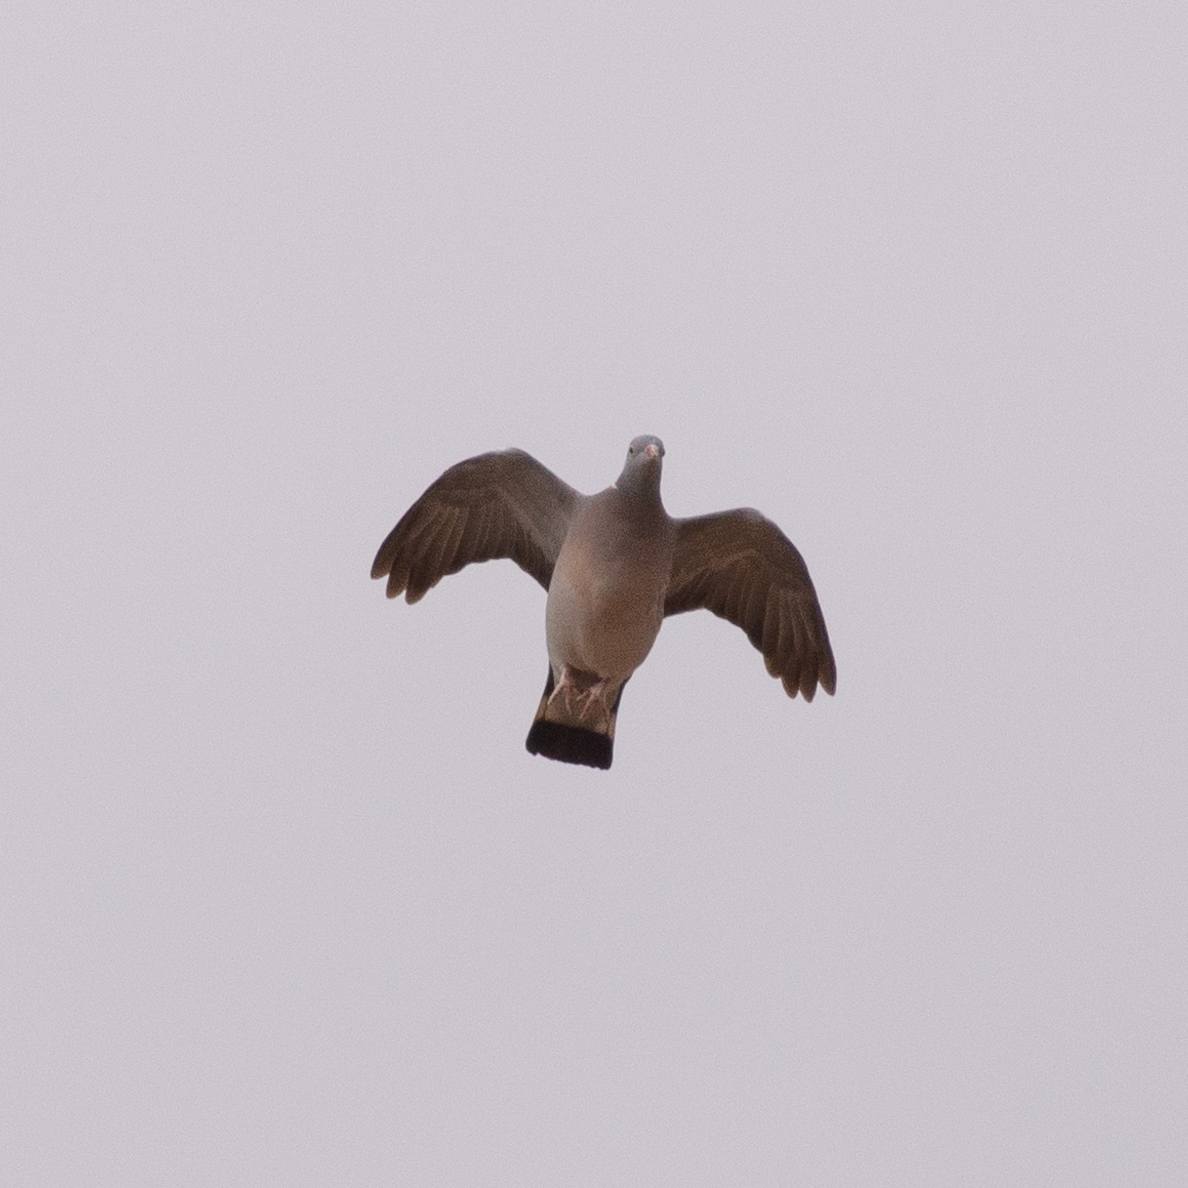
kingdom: Animalia
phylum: Chordata
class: Aves
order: Columbiformes
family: Columbidae
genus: Columba
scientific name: Columba palumbus
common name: Common wood pigeon
